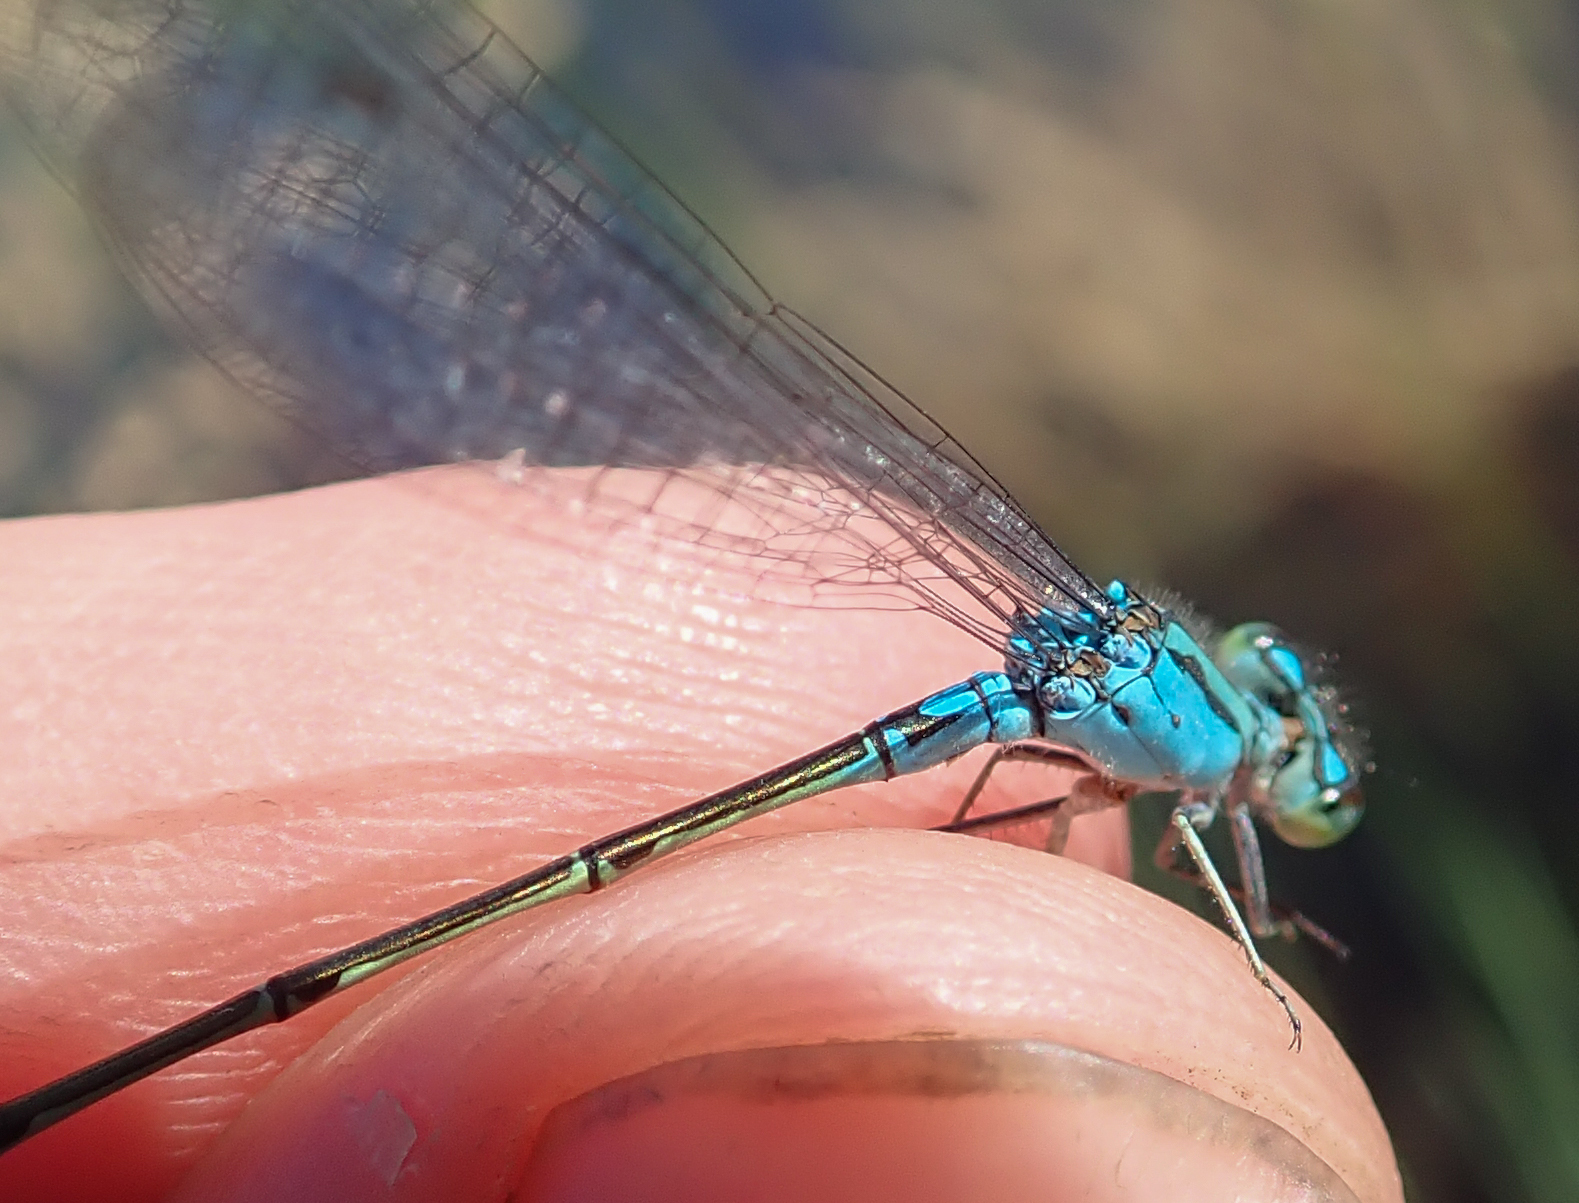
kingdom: Animalia
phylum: Arthropoda
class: Insecta
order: Odonata
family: Coenagrionidae
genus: Pseudagrion
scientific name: Pseudagrion coeleste
